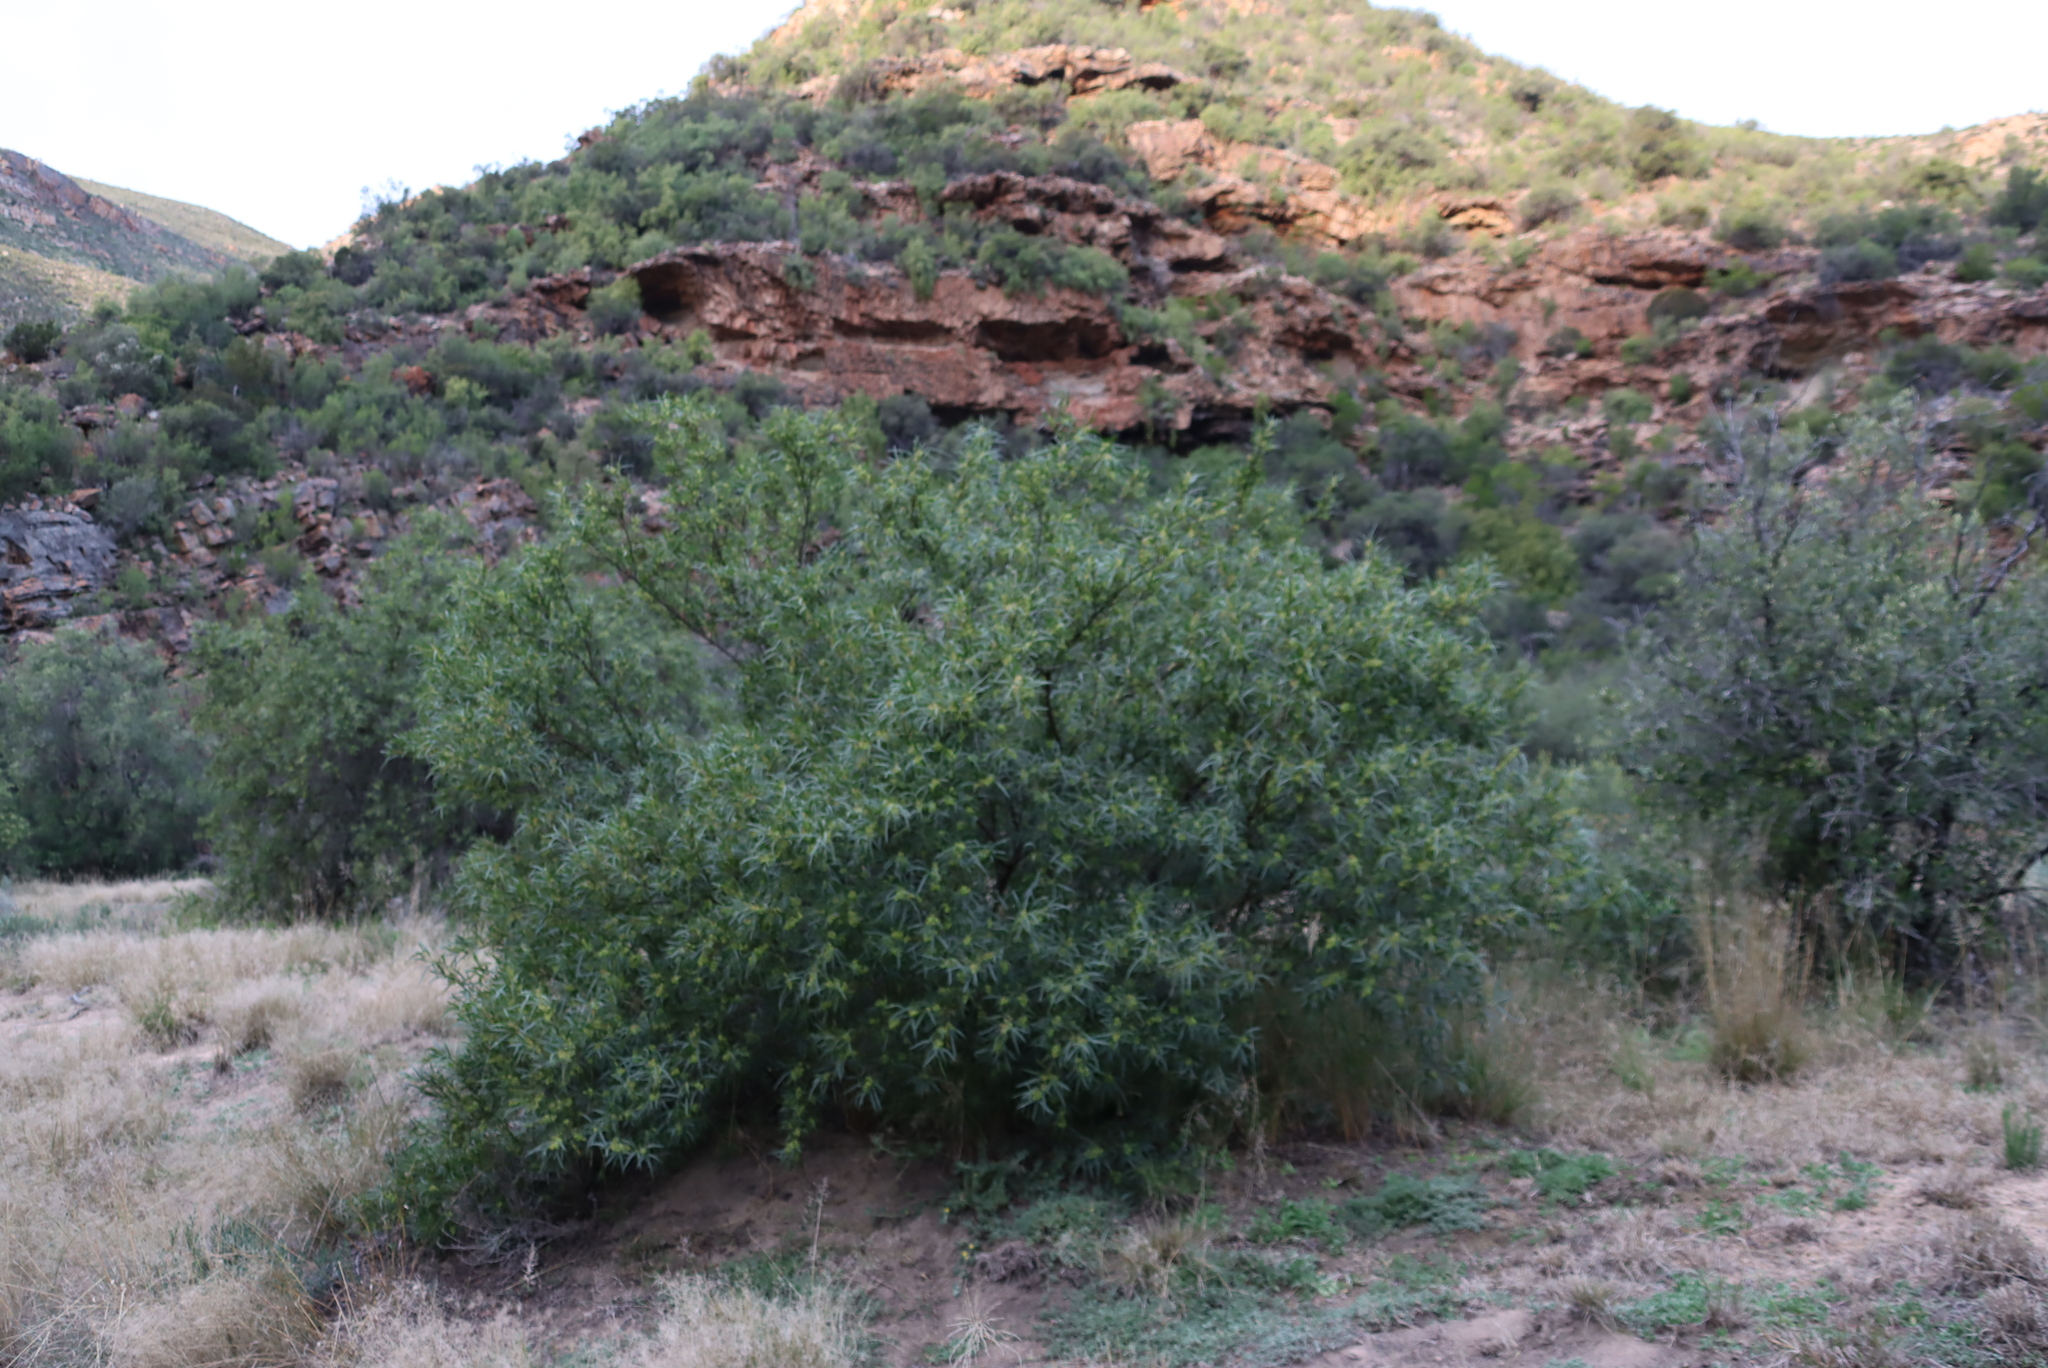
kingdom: Plantae
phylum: Tracheophyta
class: Magnoliopsida
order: Sapindales
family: Anacardiaceae
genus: Searsia
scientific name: Searsia lancea
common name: Cashew
